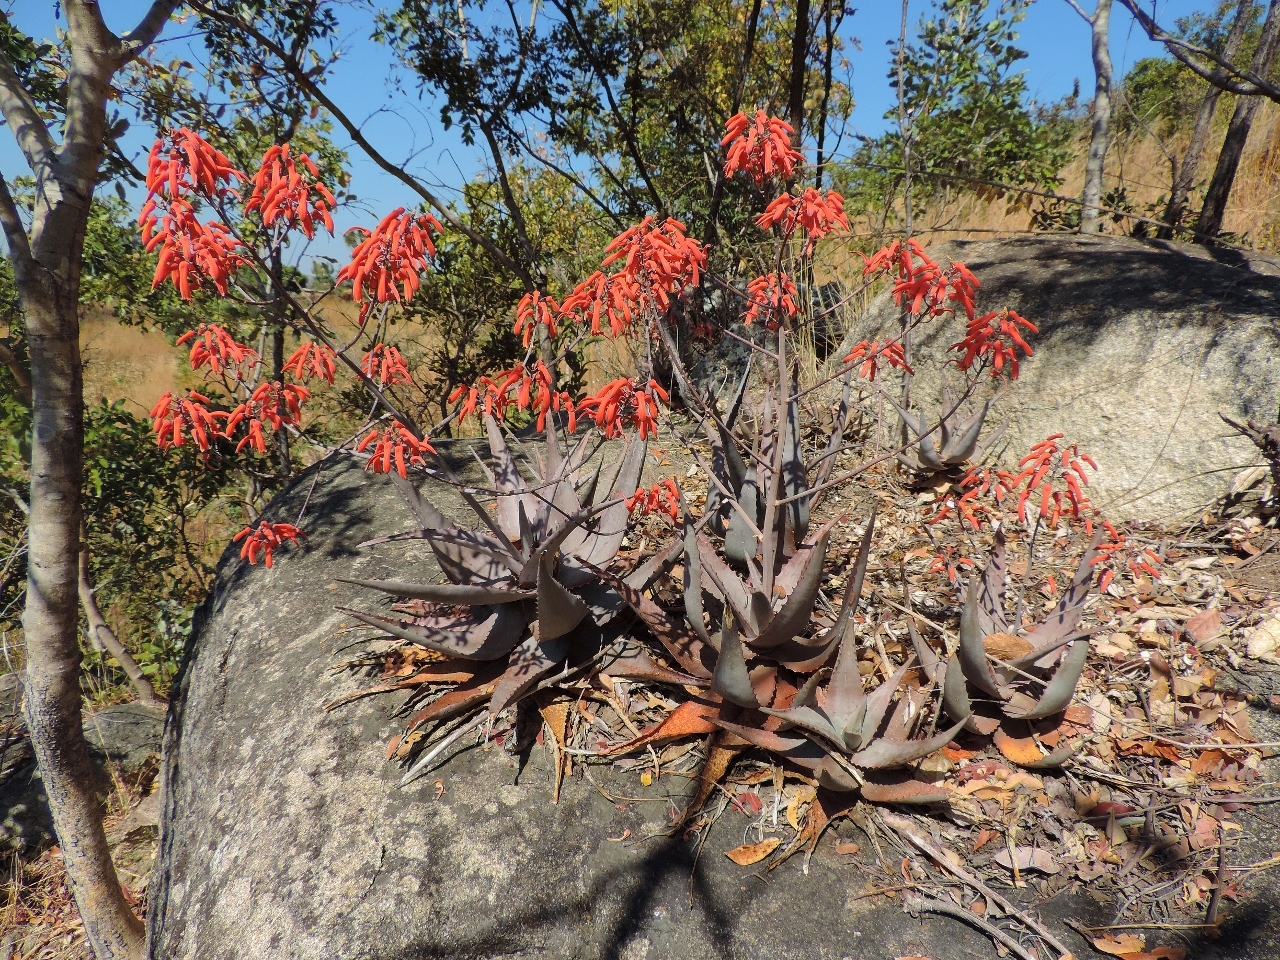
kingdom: Plantae
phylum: Tracheophyta
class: Liliopsida
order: Asparagales
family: Asphodelaceae
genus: Aloe
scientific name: Aloe chabaudii
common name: Chabaud's aloe
